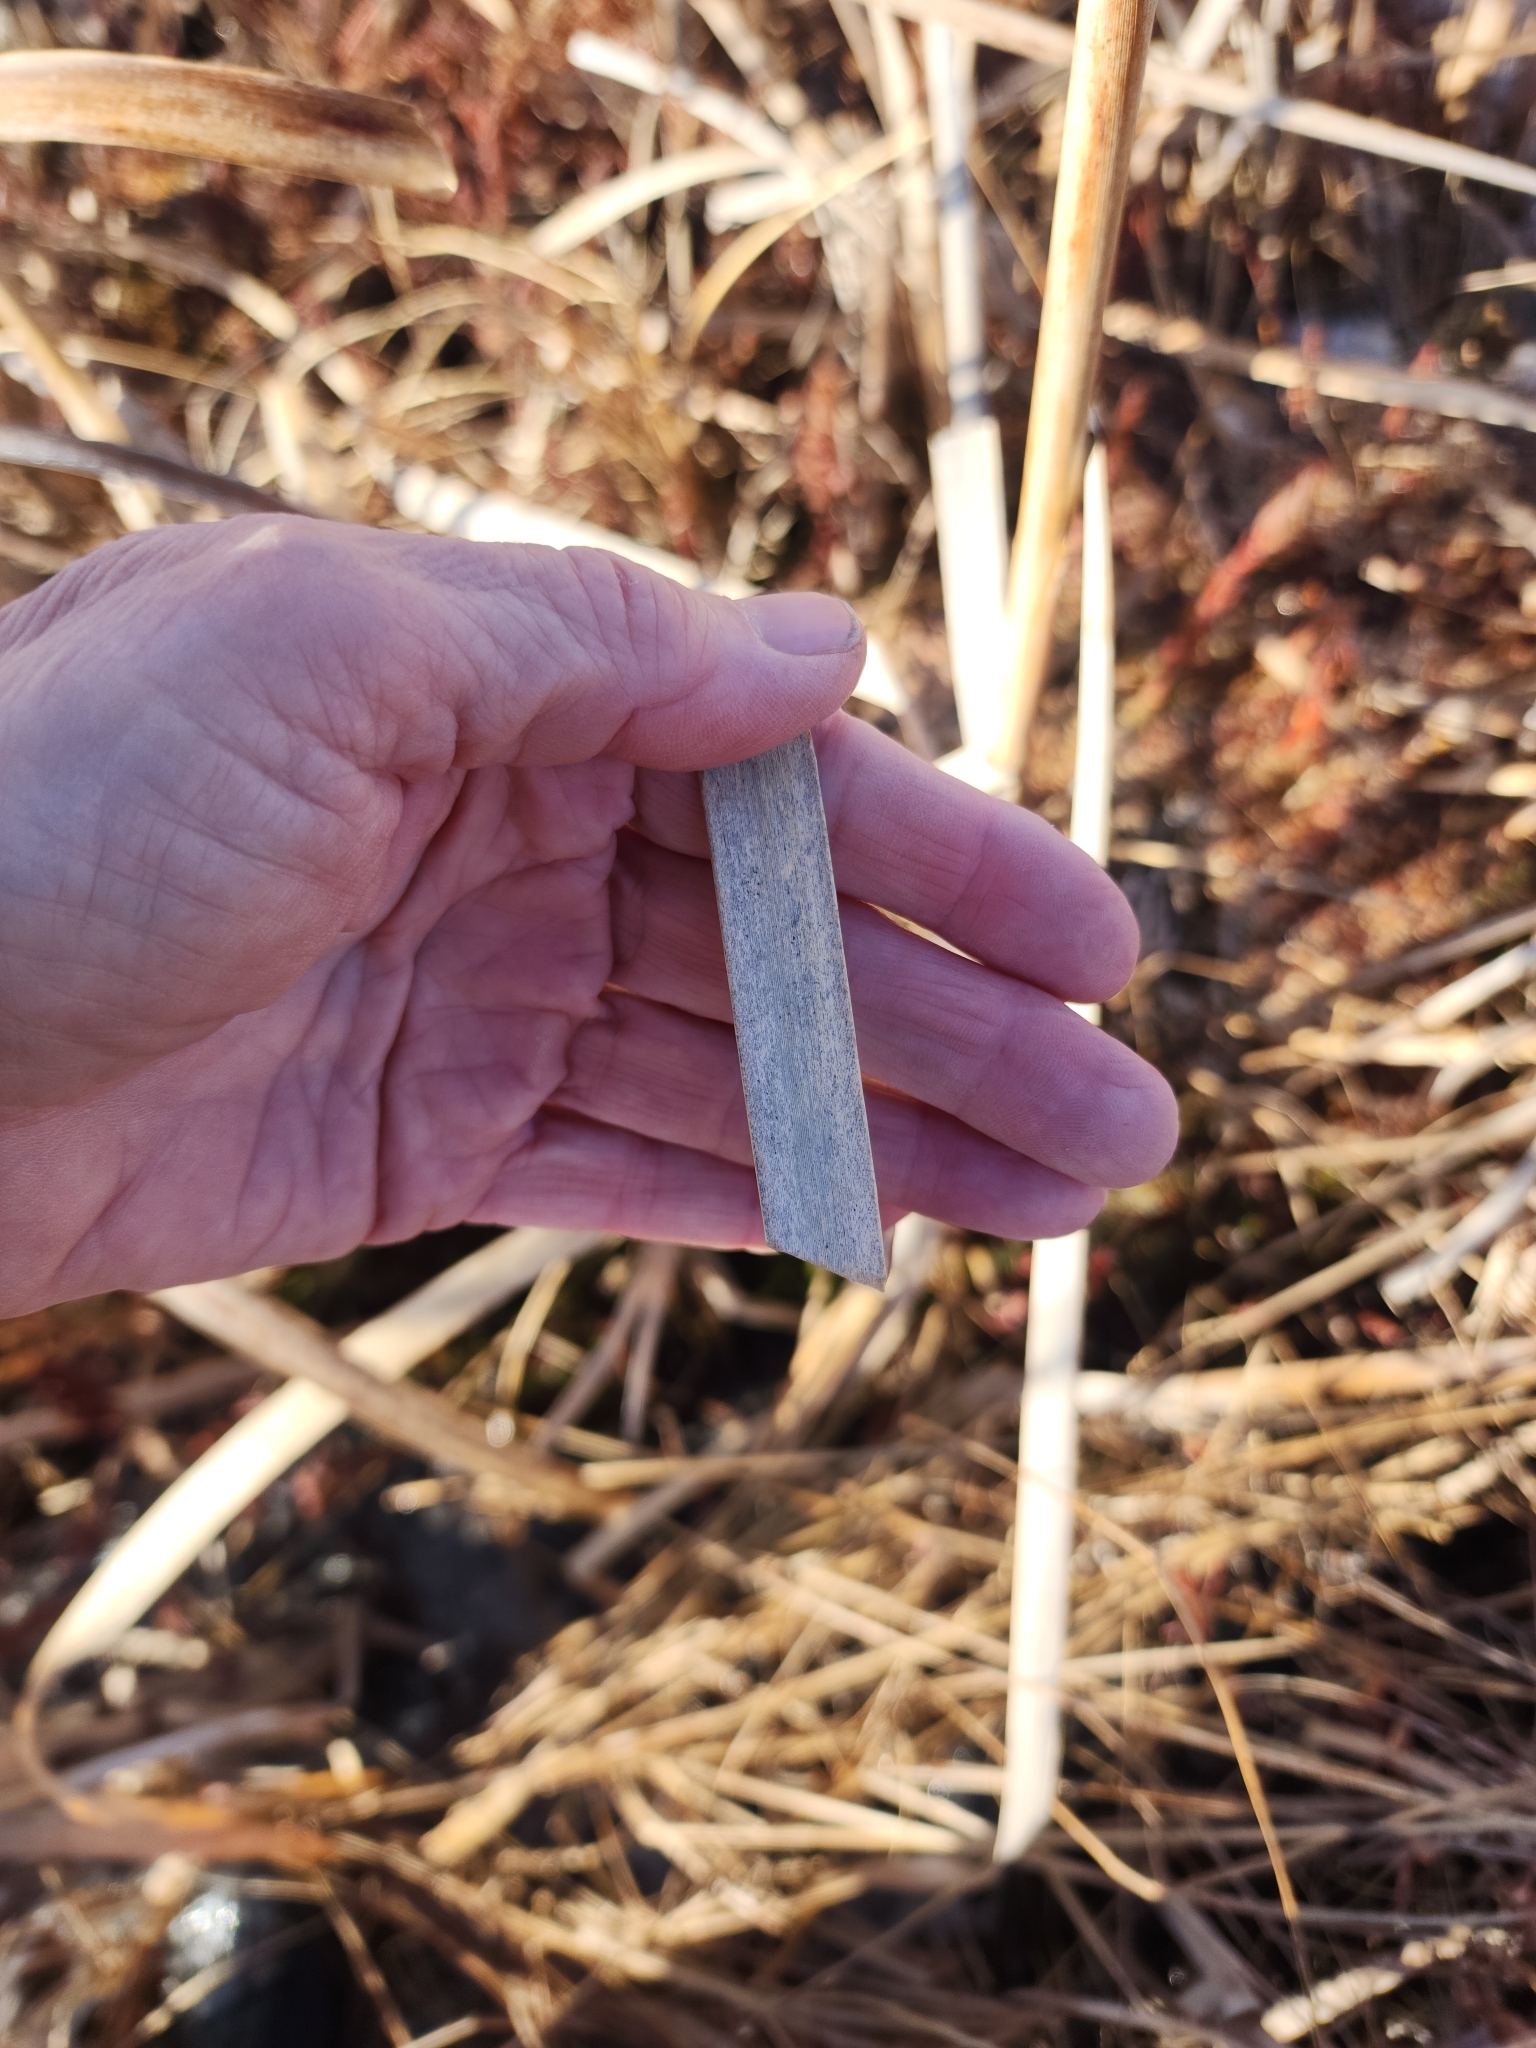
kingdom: Plantae
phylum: Tracheophyta
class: Liliopsida
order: Poales
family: Typhaceae
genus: Typha
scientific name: Typha latifolia
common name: Broadleaf cattail
